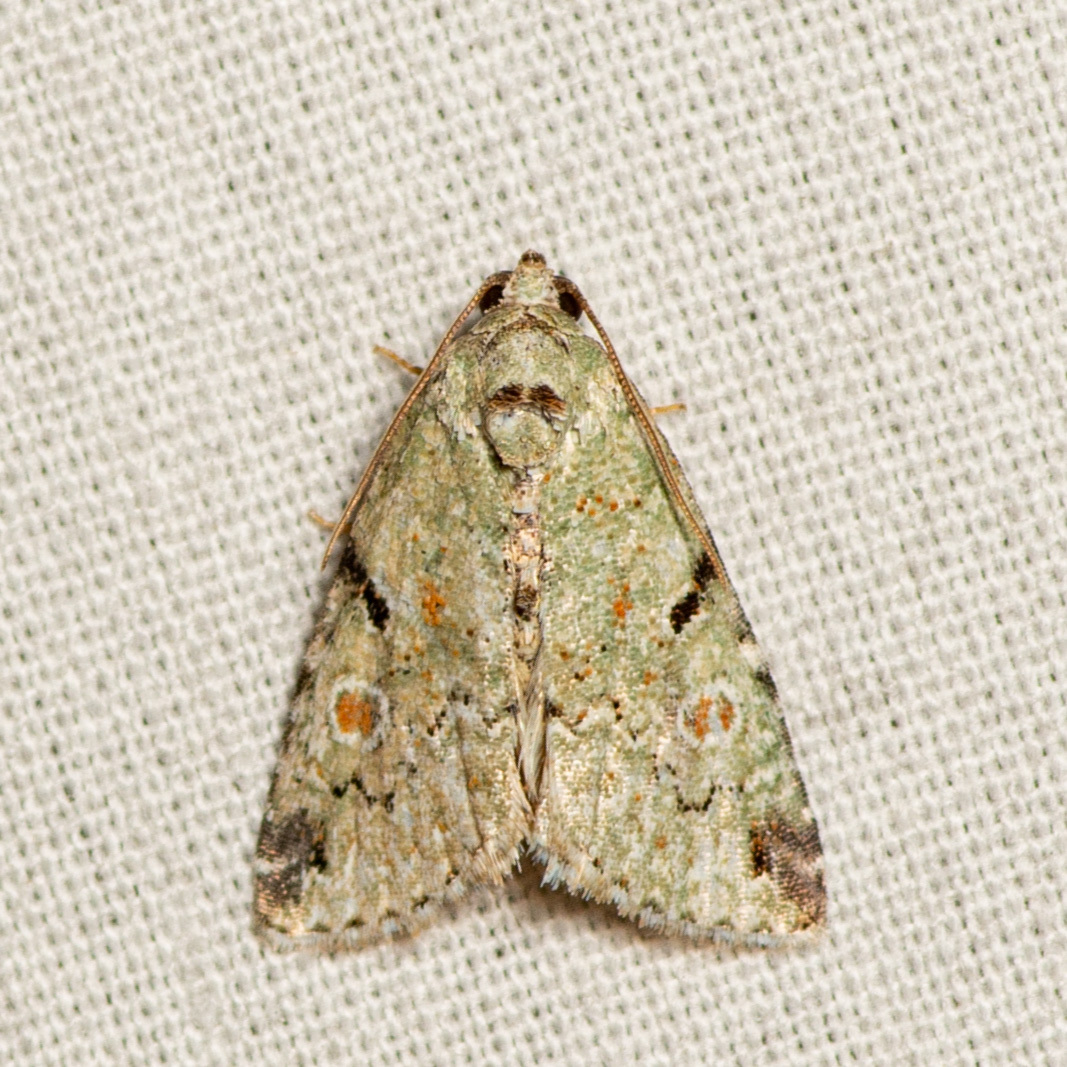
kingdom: Animalia
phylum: Arthropoda
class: Insecta
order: Lepidoptera
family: Noctuidae
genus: Maliattha
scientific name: Maliattha concinnimacula
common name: Red-spotted glyph
